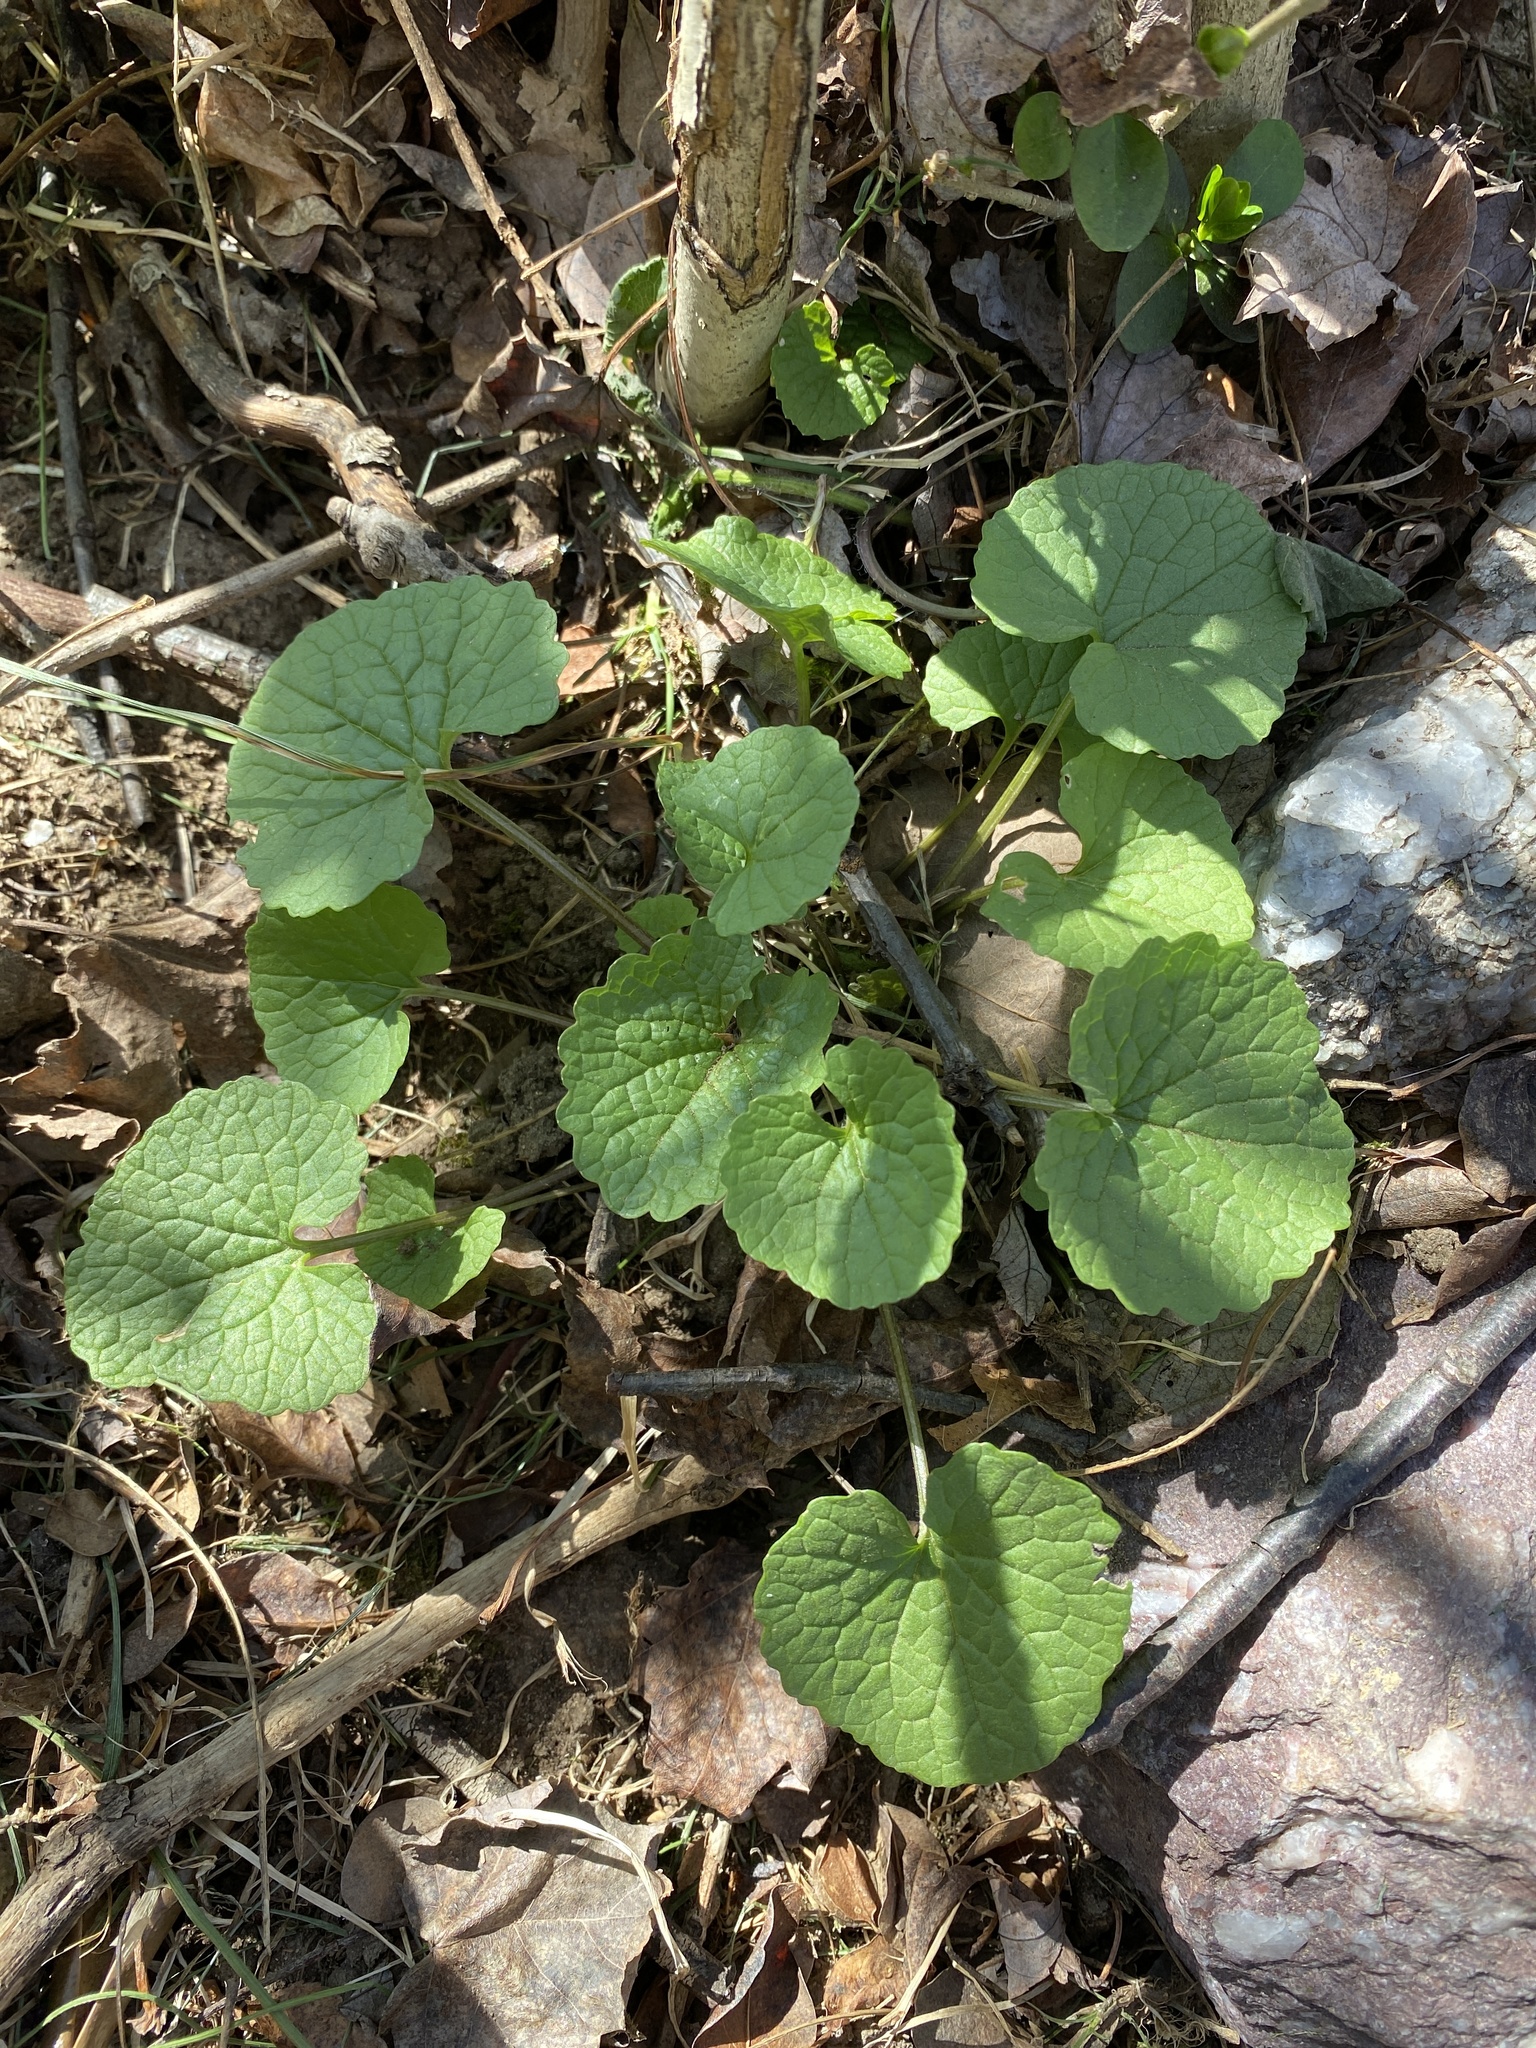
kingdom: Plantae
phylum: Tracheophyta
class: Magnoliopsida
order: Brassicales
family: Brassicaceae
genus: Alliaria
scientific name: Alliaria petiolata
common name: Garlic mustard
